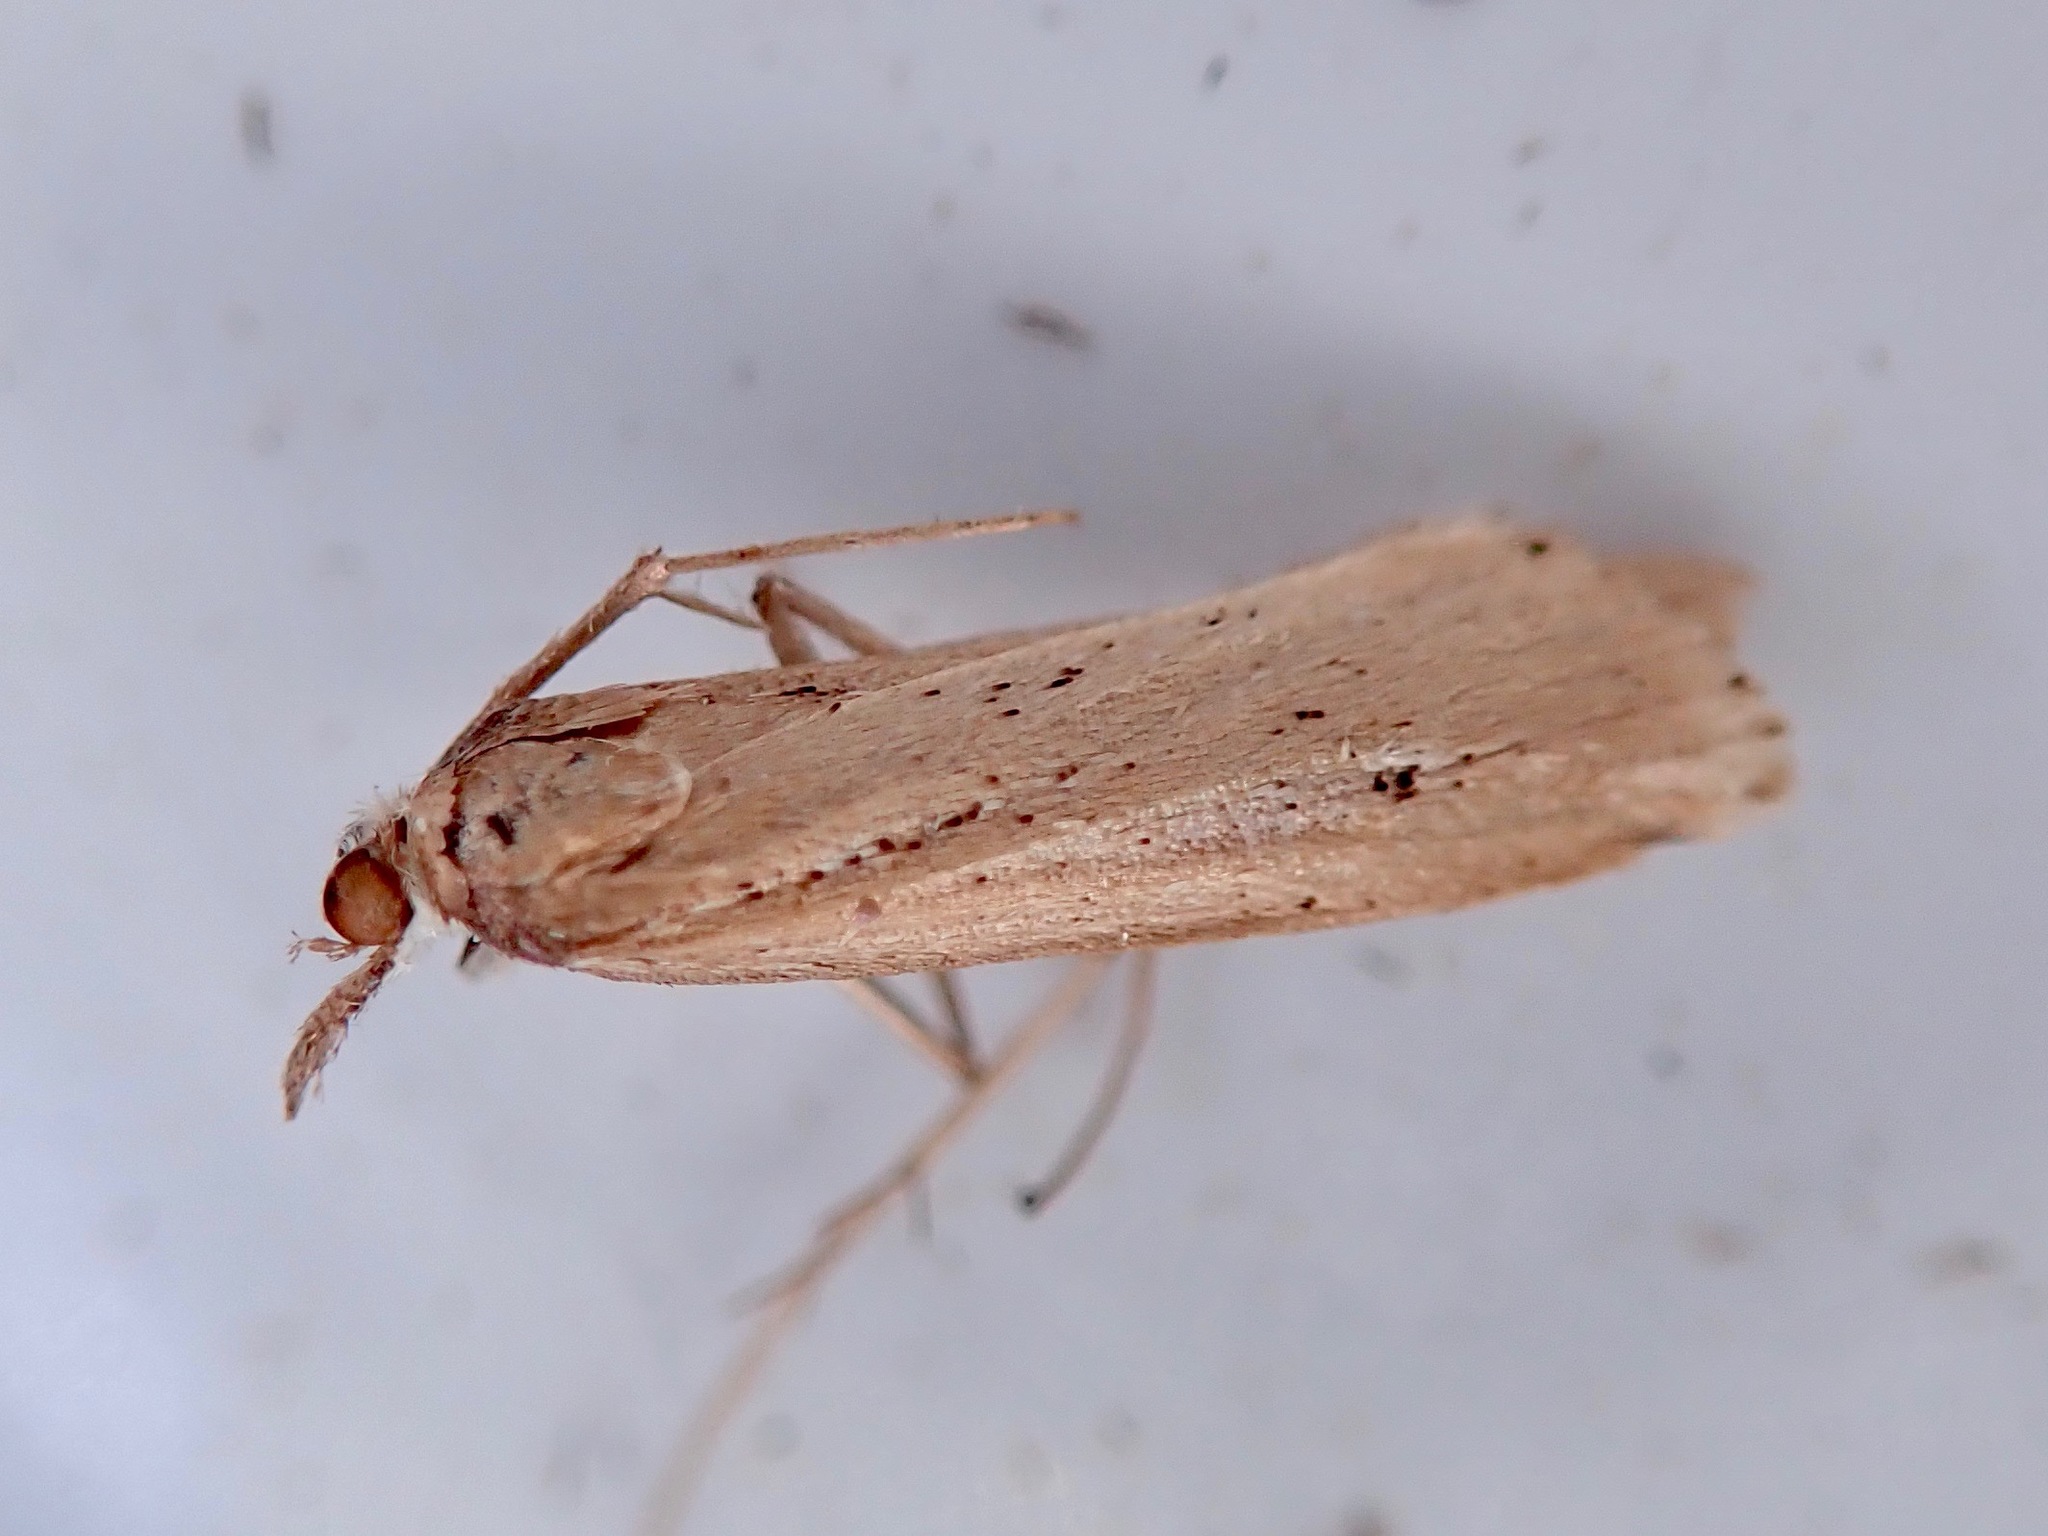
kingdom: Animalia
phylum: Arthropoda
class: Insecta
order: Lepidoptera
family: Crambidae
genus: Eudonia
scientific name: Eudonia sabulosella
